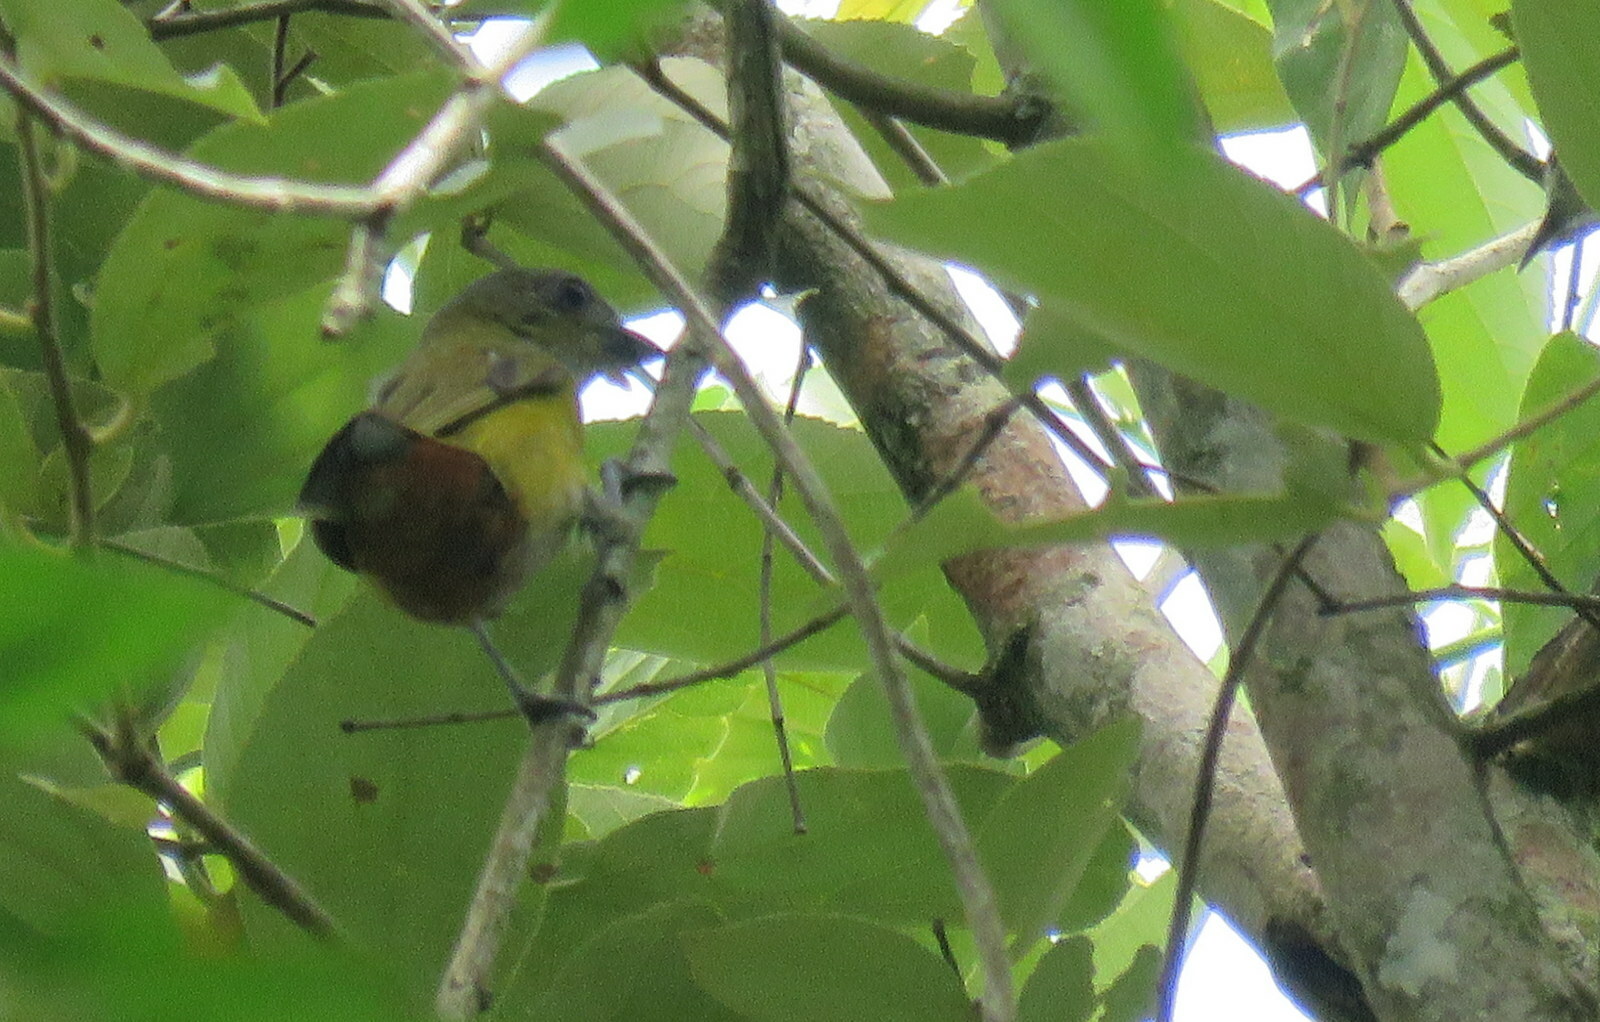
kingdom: Animalia
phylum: Chordata
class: Aves
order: Passeriformes
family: Fringillidae
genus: Euphonia
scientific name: Euphonia pectoralis
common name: Chestnut-bellied euphonia
